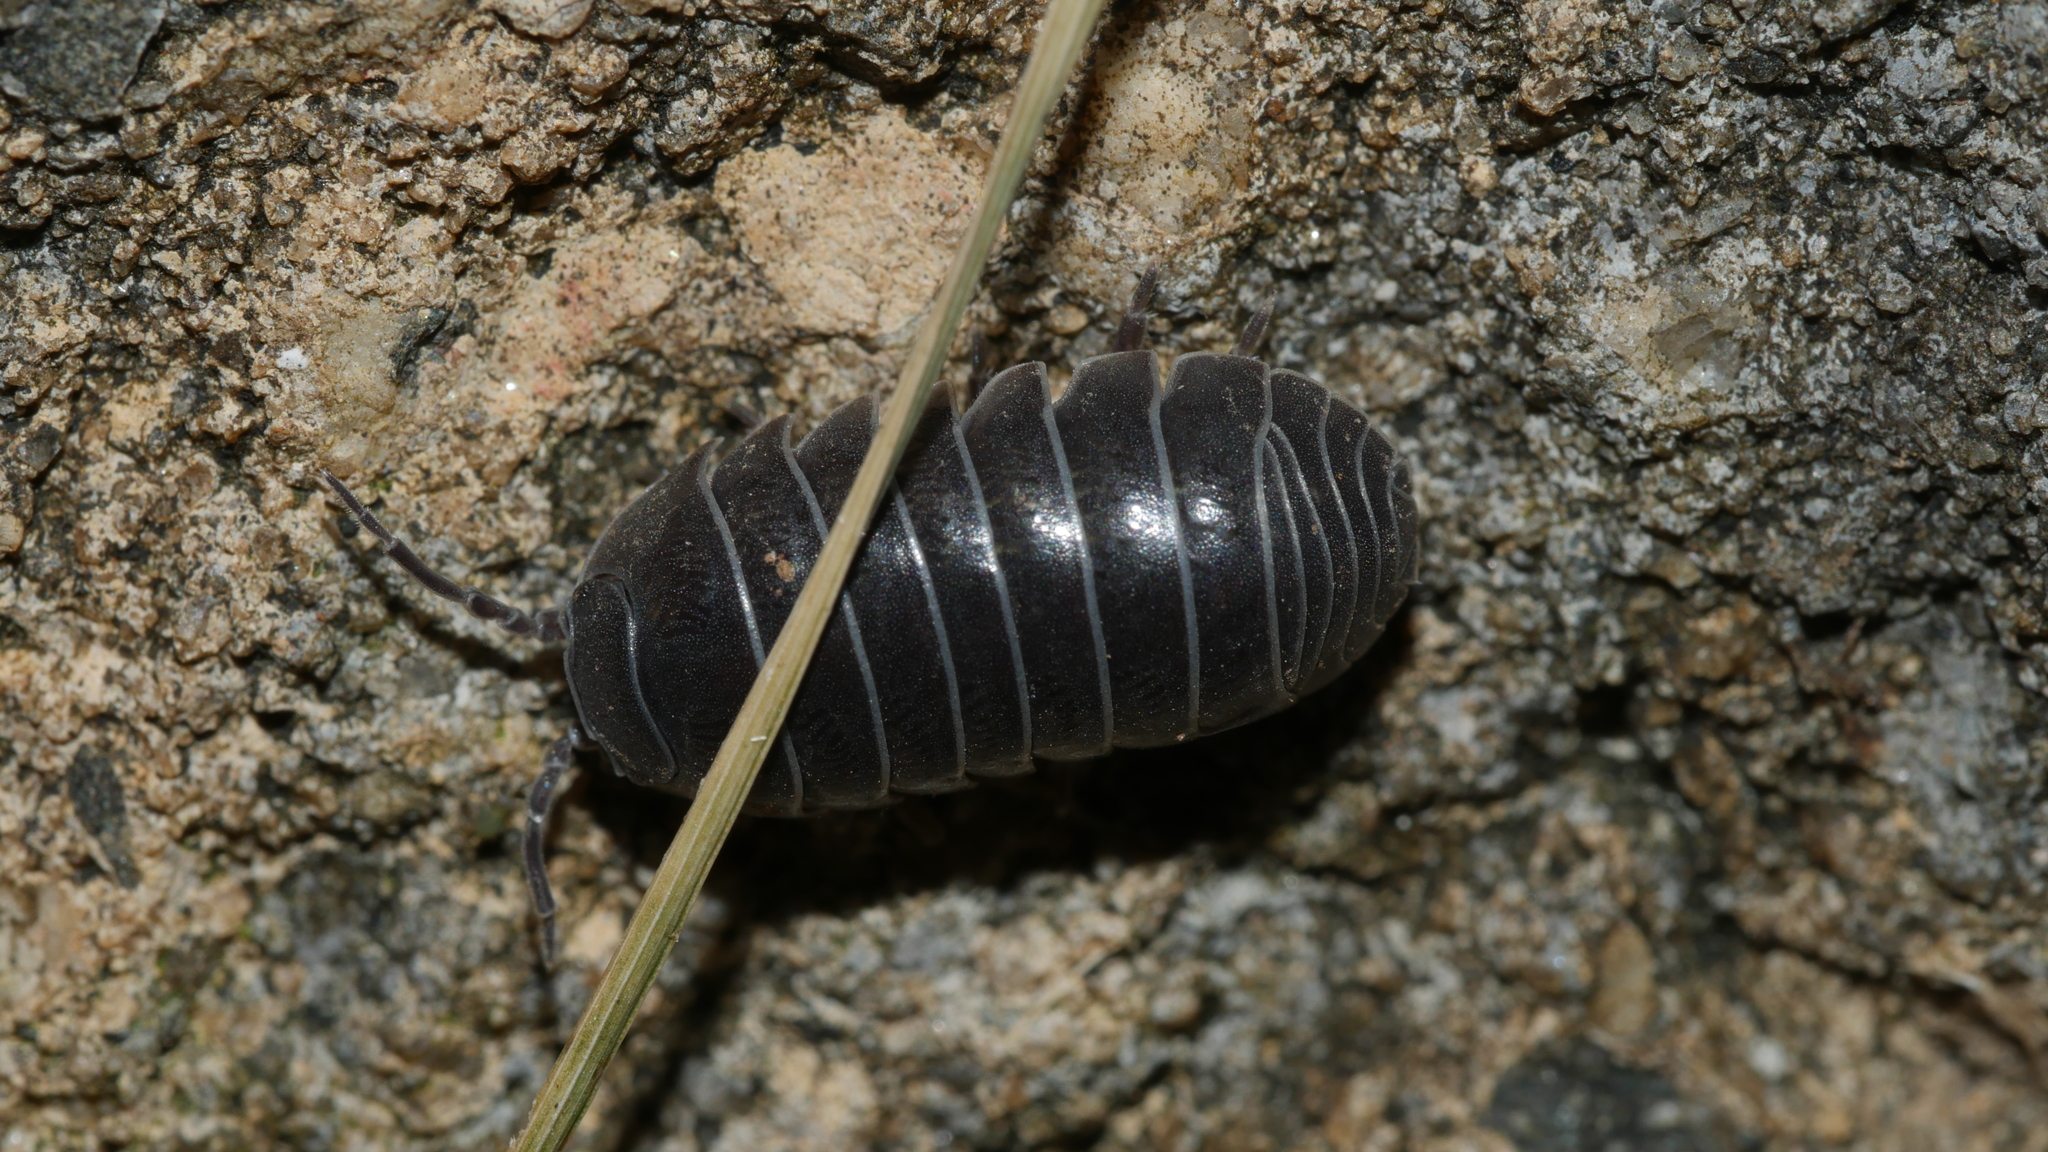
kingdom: Animalia
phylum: Arthropoda
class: Malacostraca
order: Isopoda
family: Armadillidiidae
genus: Armadillidium
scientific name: Armadillidium vulgare
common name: Common pill woodlouse
